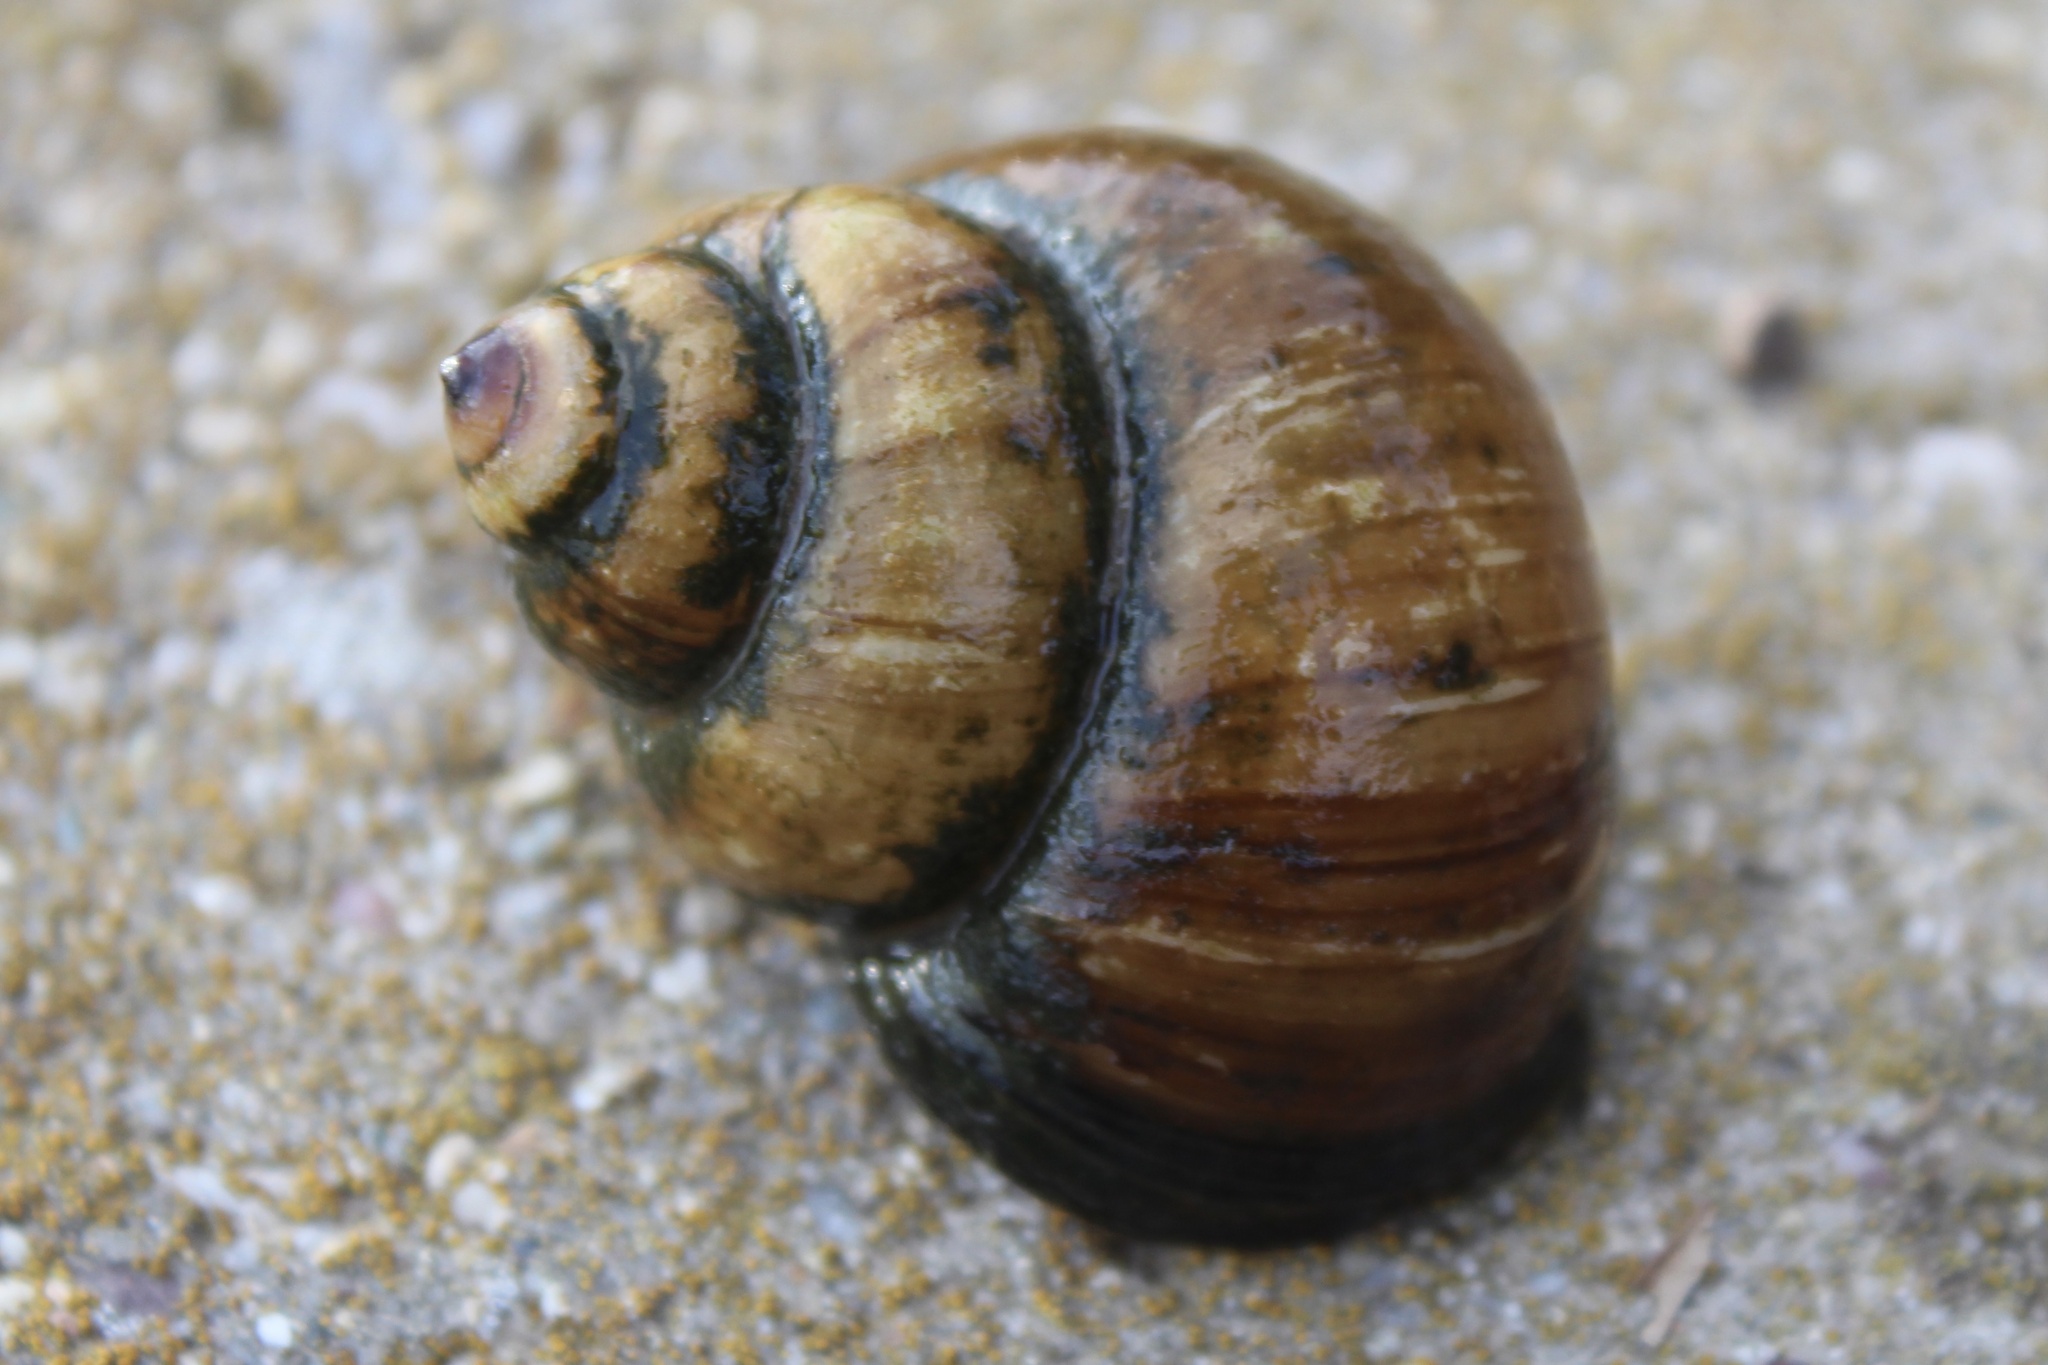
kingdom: Animalia
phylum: Mollusca
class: Gastropoda
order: Architaenioglossa
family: Viviparidae
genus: Cipangopaludina
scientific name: Cipangopaludina chinensis
